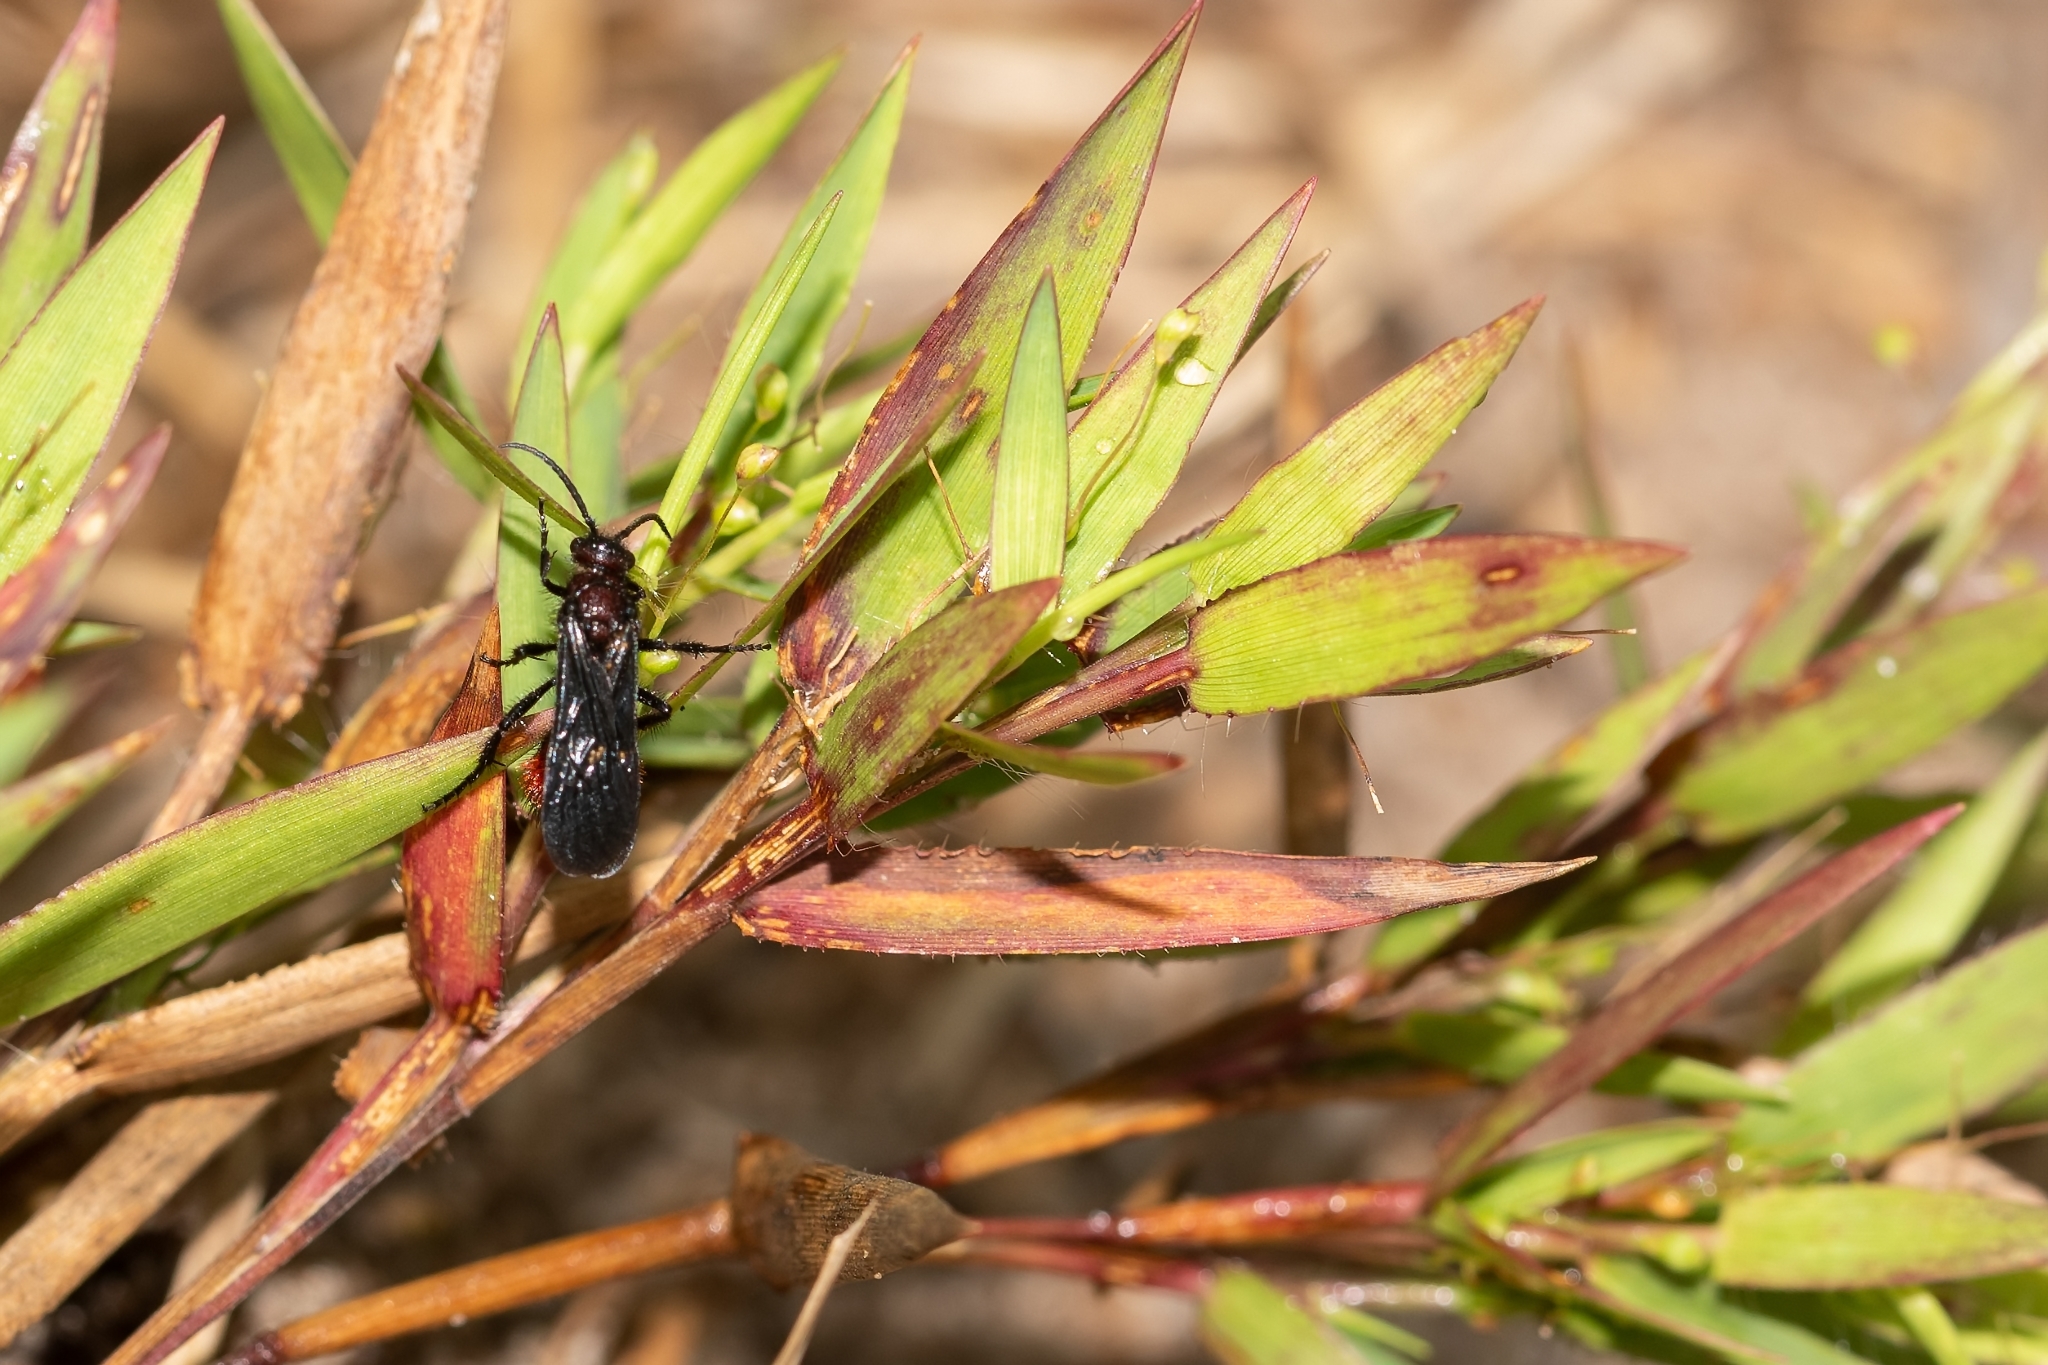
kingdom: Animalia
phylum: Arthropoda
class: Insecta
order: Hymenoptera
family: Mutillidae
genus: Dasymutilla
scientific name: Dasymutilla
